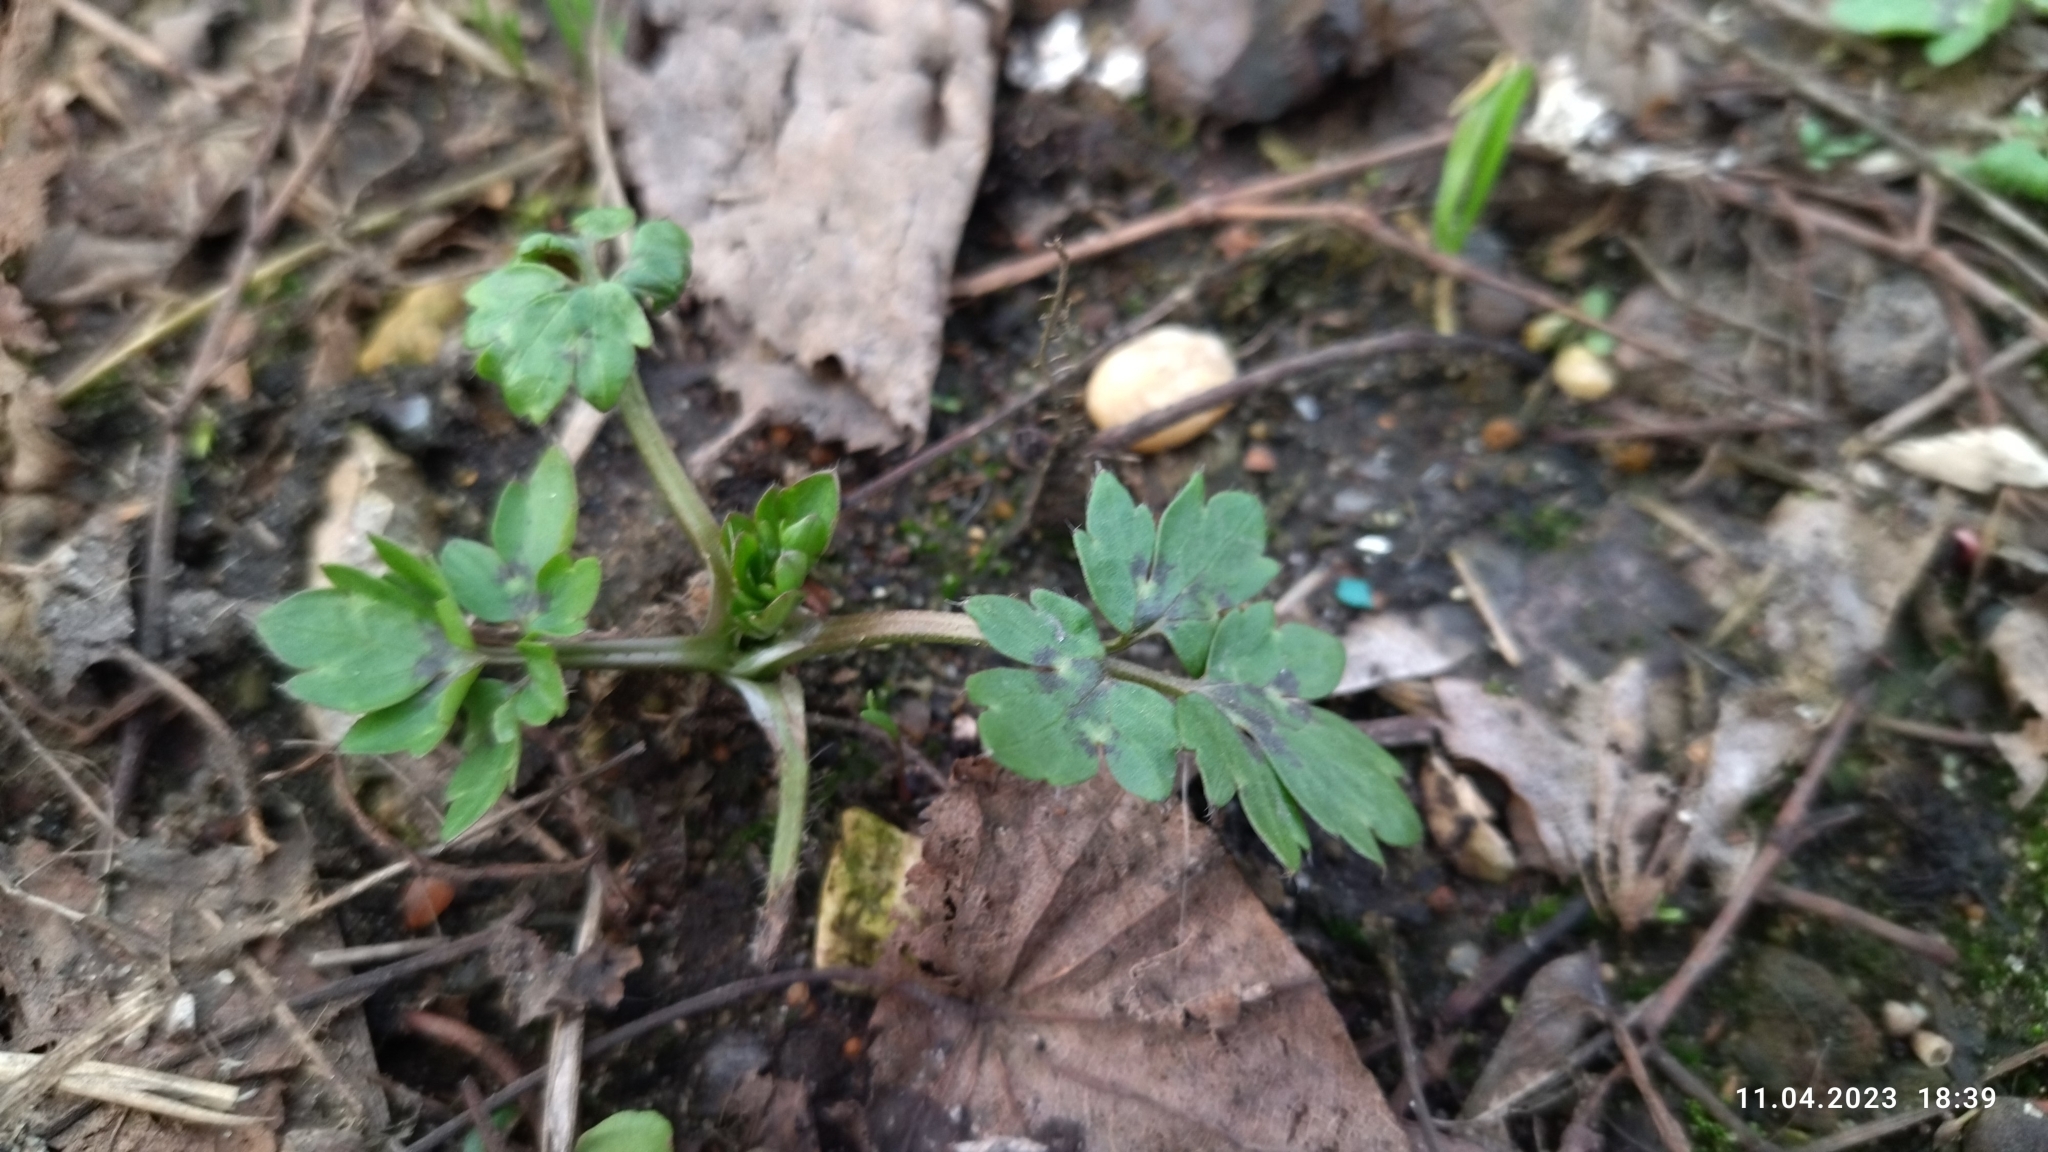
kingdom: Plantae
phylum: Tracheophyta
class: Magnoliopsida
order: Ranunculales
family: Ranunculaceae
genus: Ranunculus
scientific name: Ranunculus repens
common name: Creeping buttercup
